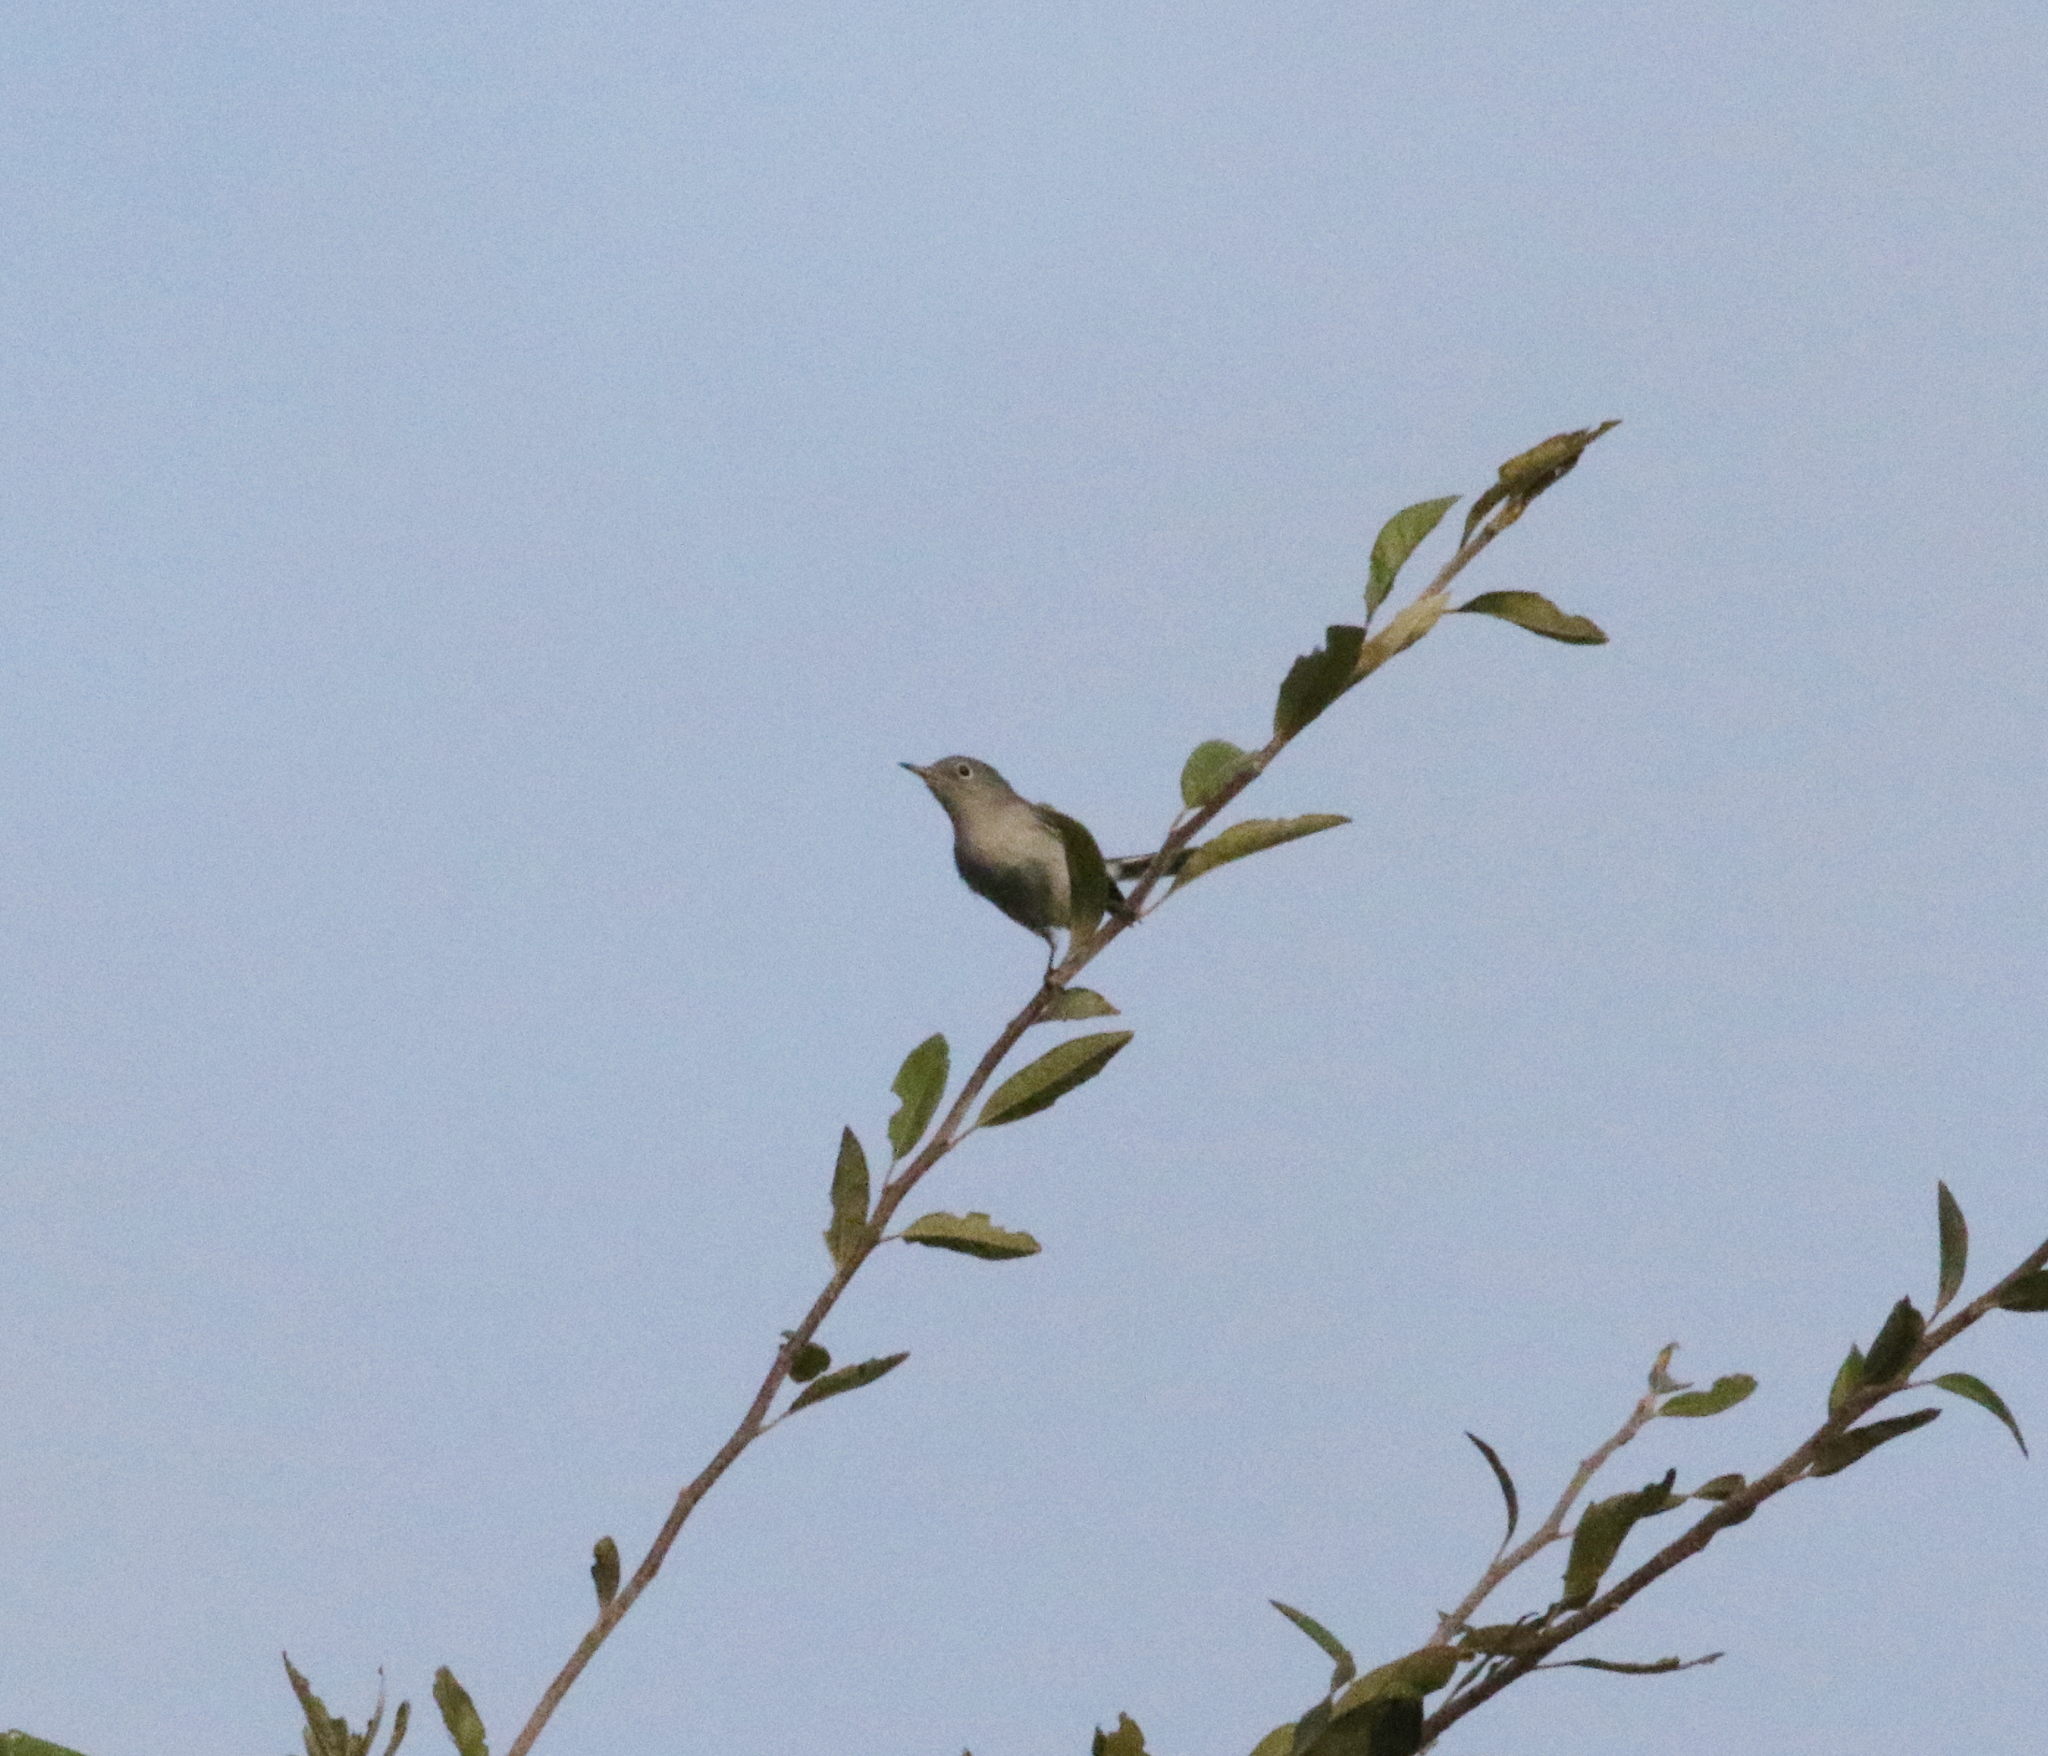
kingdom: Animalia
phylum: Chordata
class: Aves
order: Passeriformes
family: Polioptilidae
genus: Polioptila
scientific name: Polioptila caerulea
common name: Blue-gray gnatcatcher
